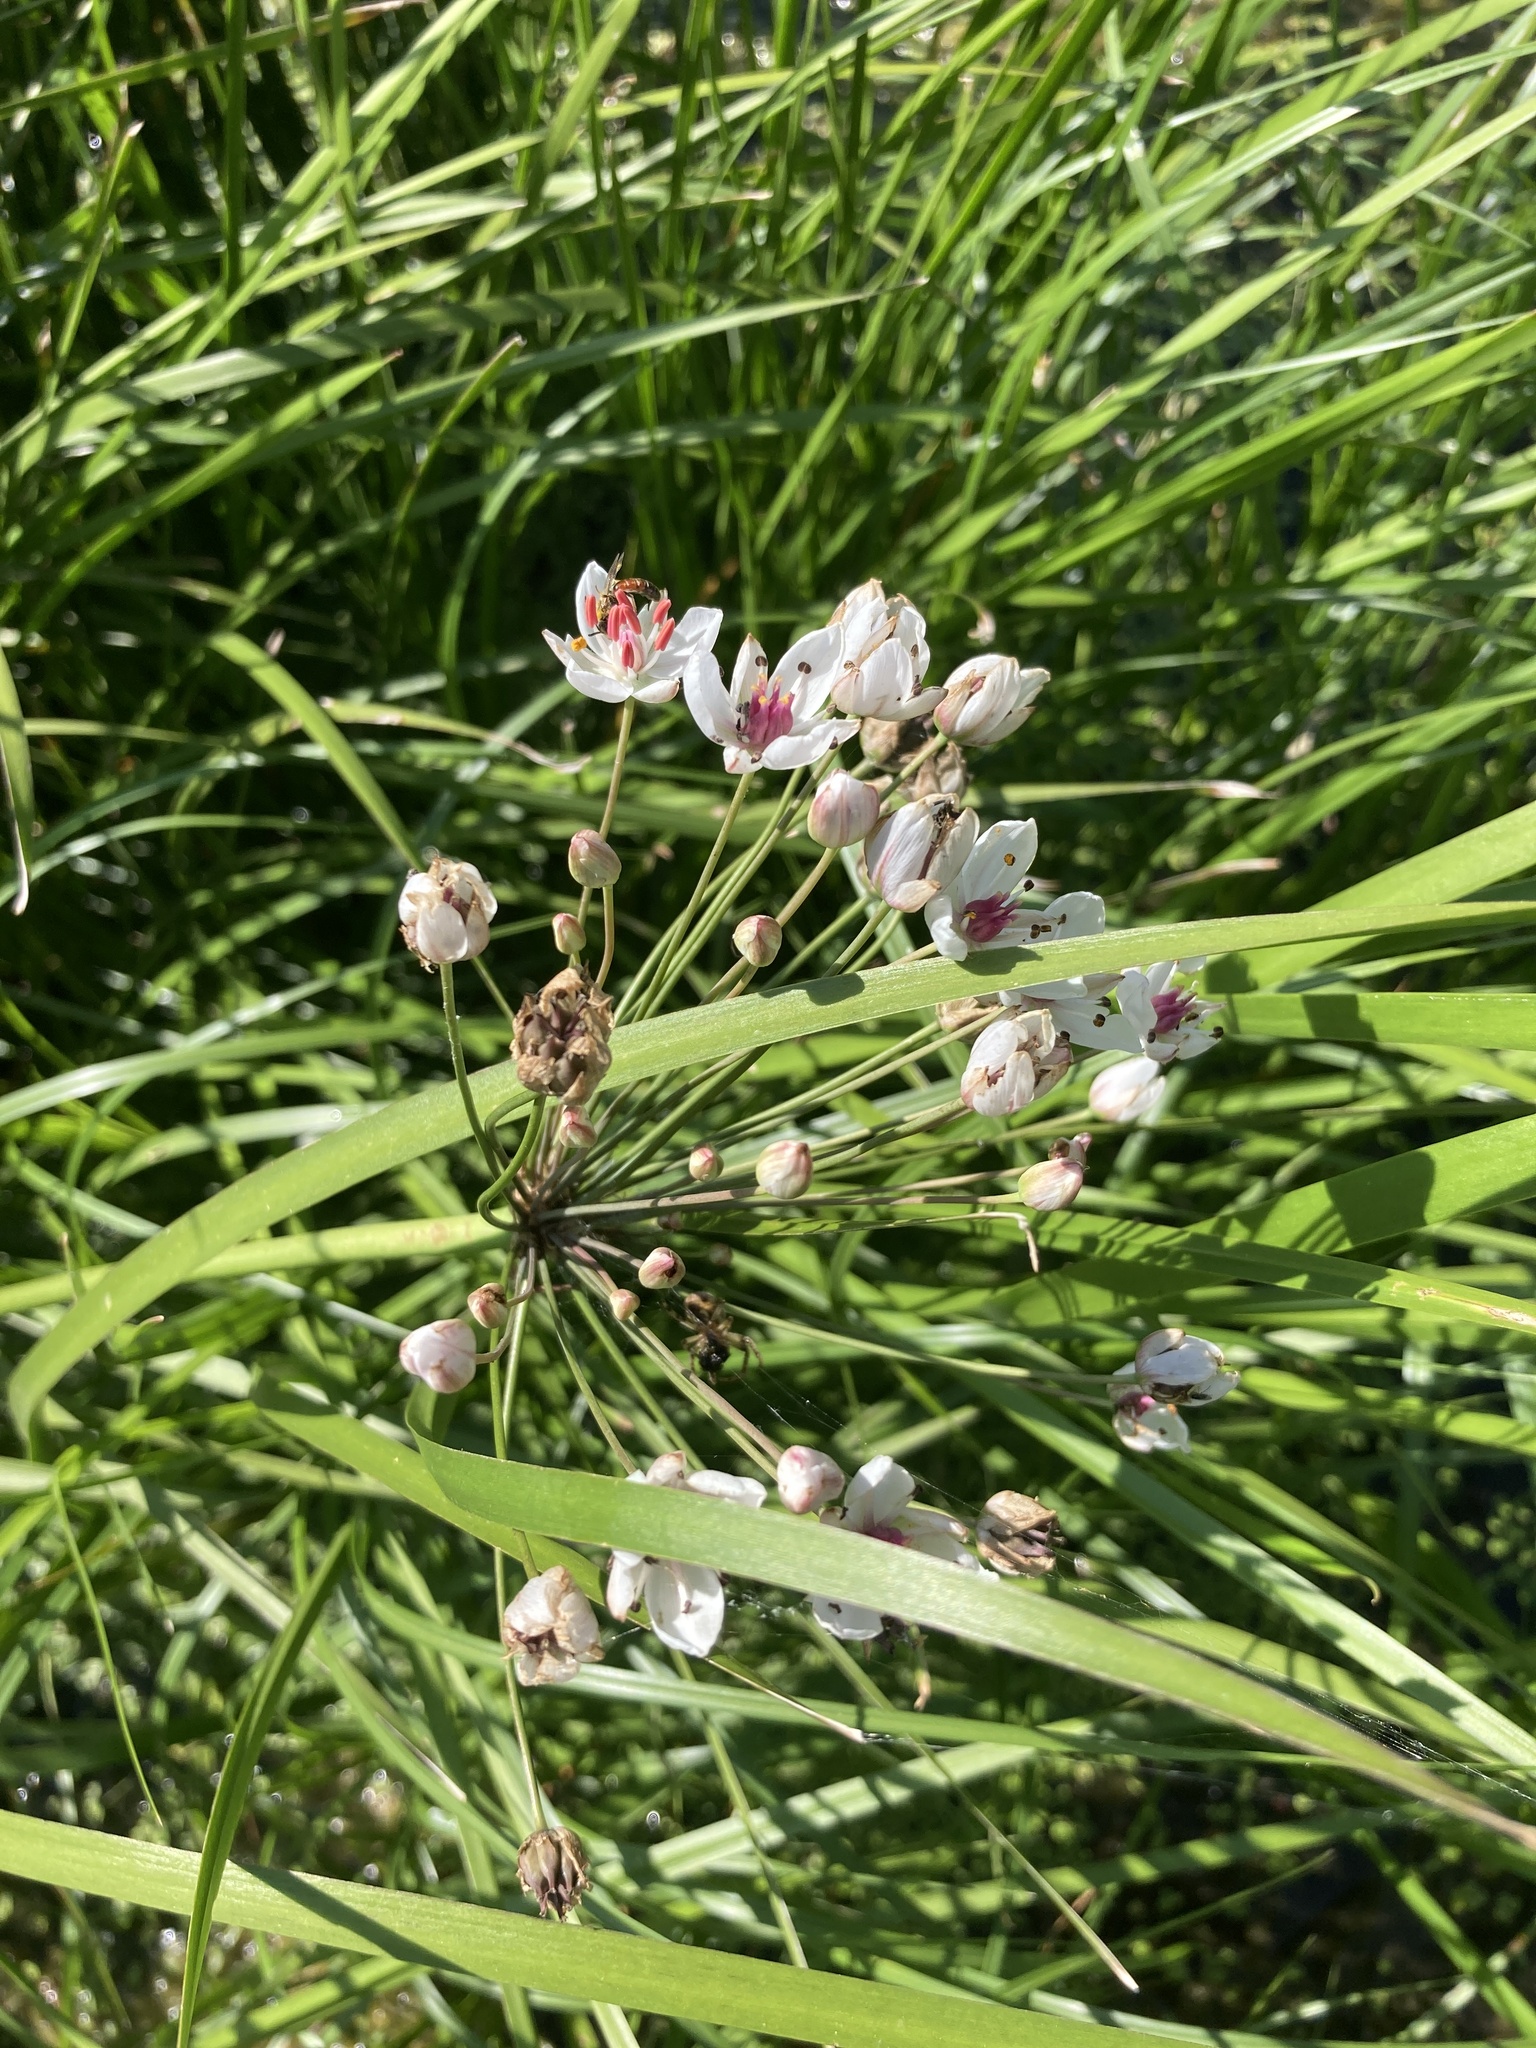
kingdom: Plantae
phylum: Tracheophyta
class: Liliopsida
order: Alismatales
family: Butomaceae
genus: Butomus
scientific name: Butomus umbellatus
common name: Flowering-rush
